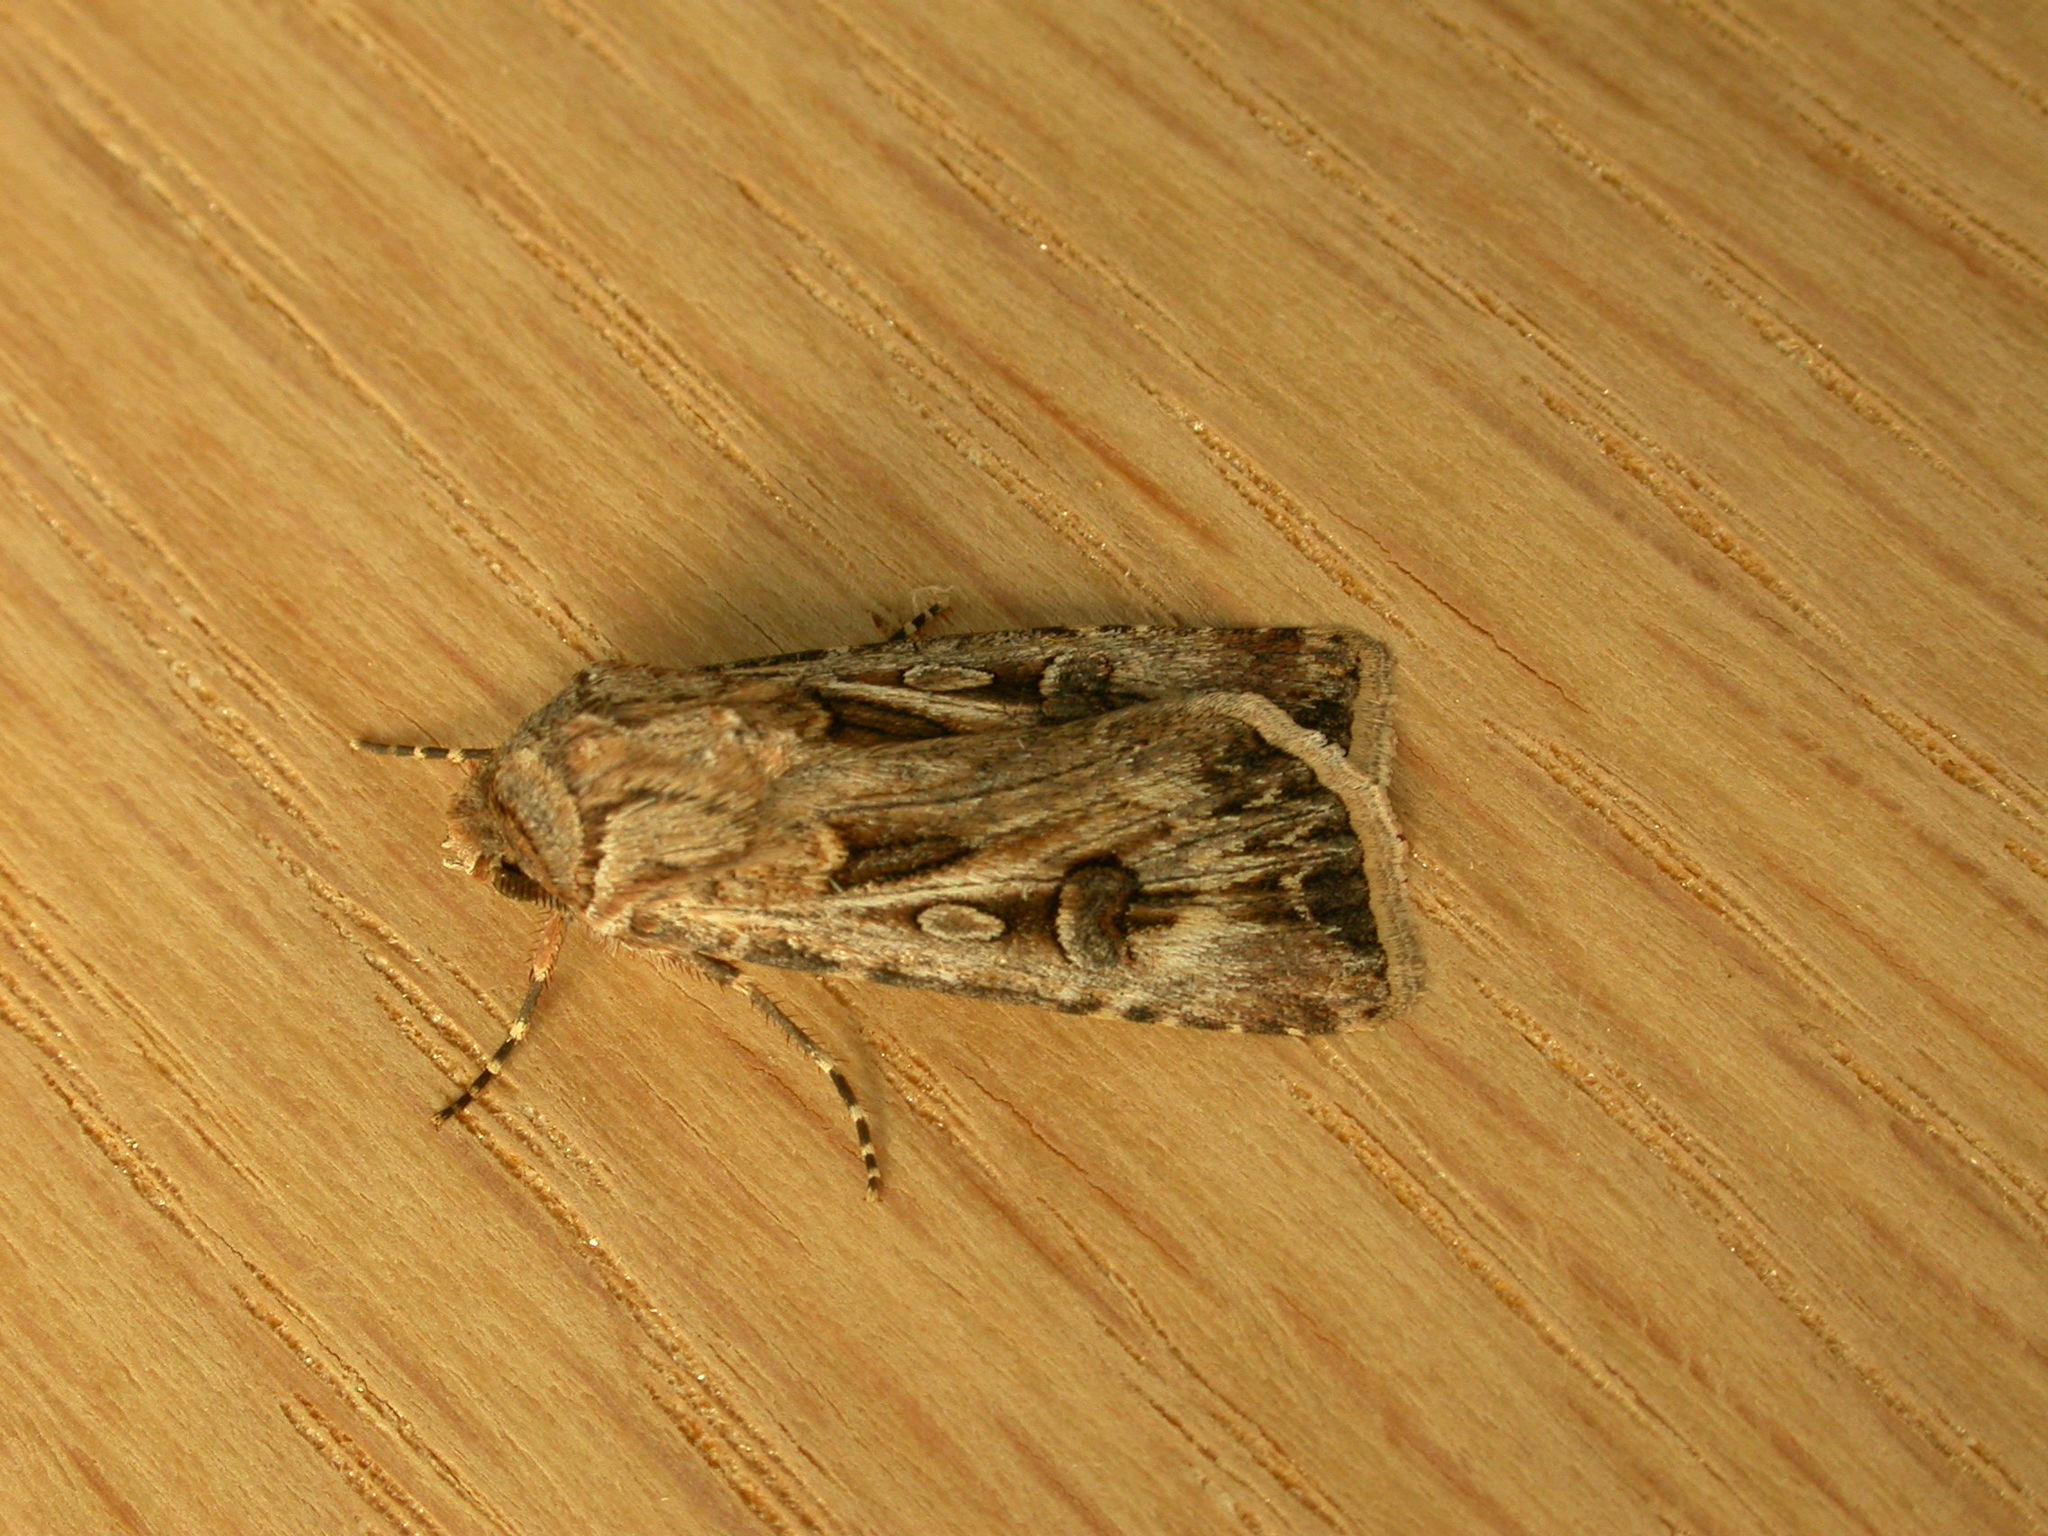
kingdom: Animalia
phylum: Arthropoda
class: Insecta
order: Lepidoptera
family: Noctuidae
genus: Agrotis
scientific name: Agrotis munda
